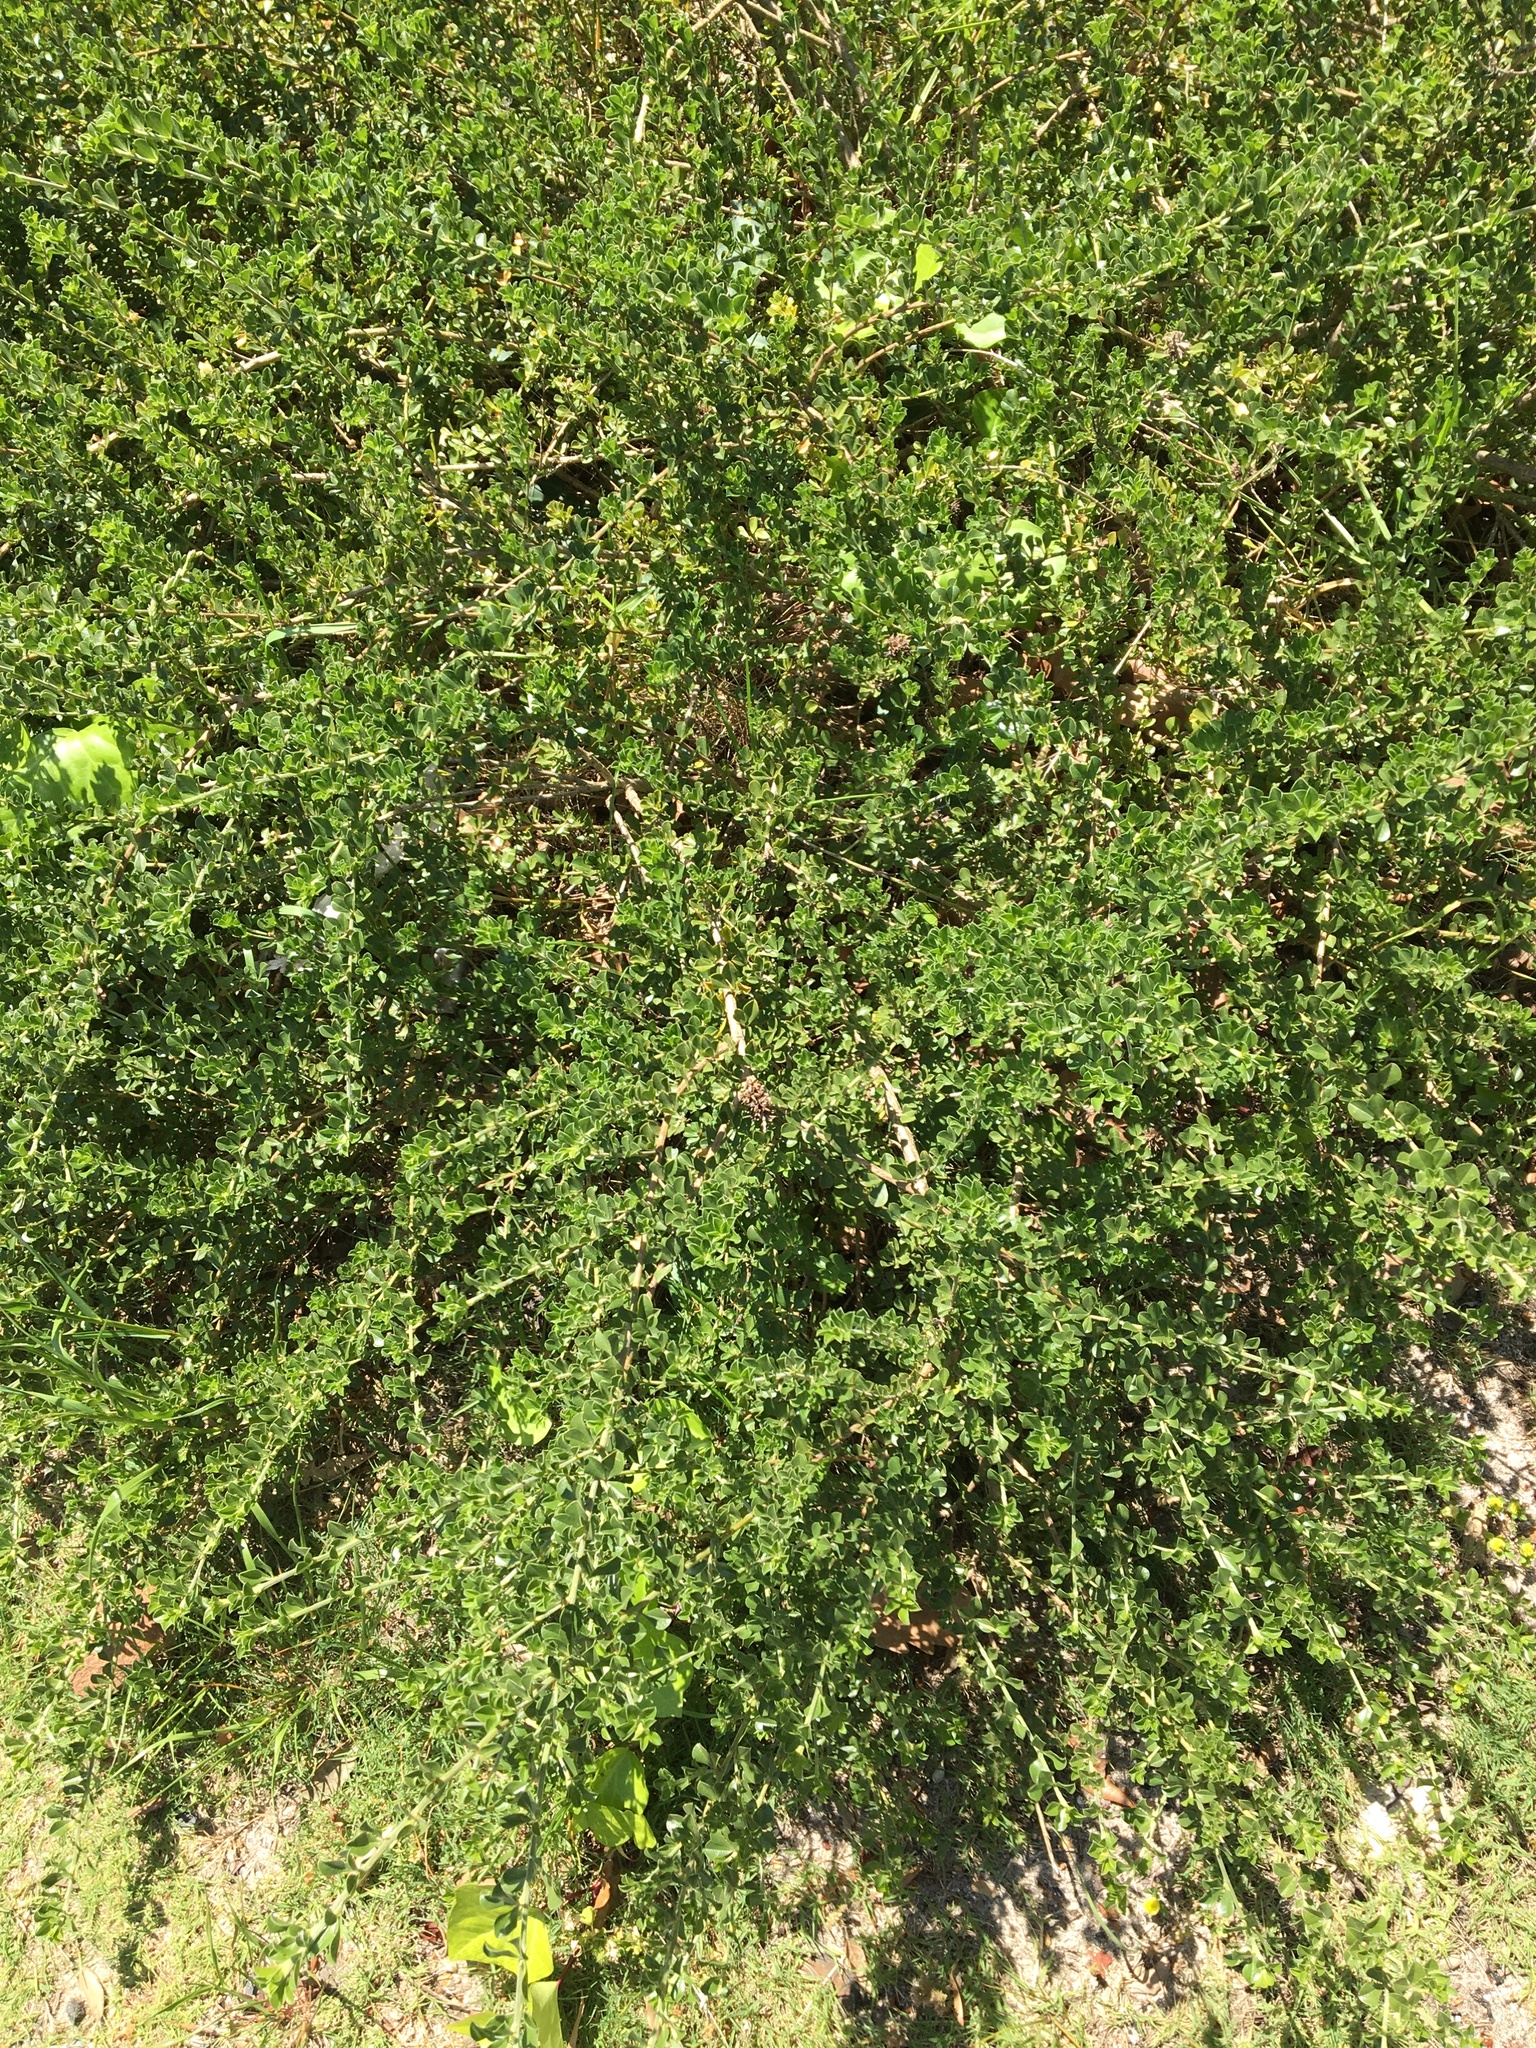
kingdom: Plantae
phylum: Tracheophyta
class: Magnoliopsida
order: Fabales
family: Fabaceae
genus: Psoralea
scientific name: Psoralea bracteolata
